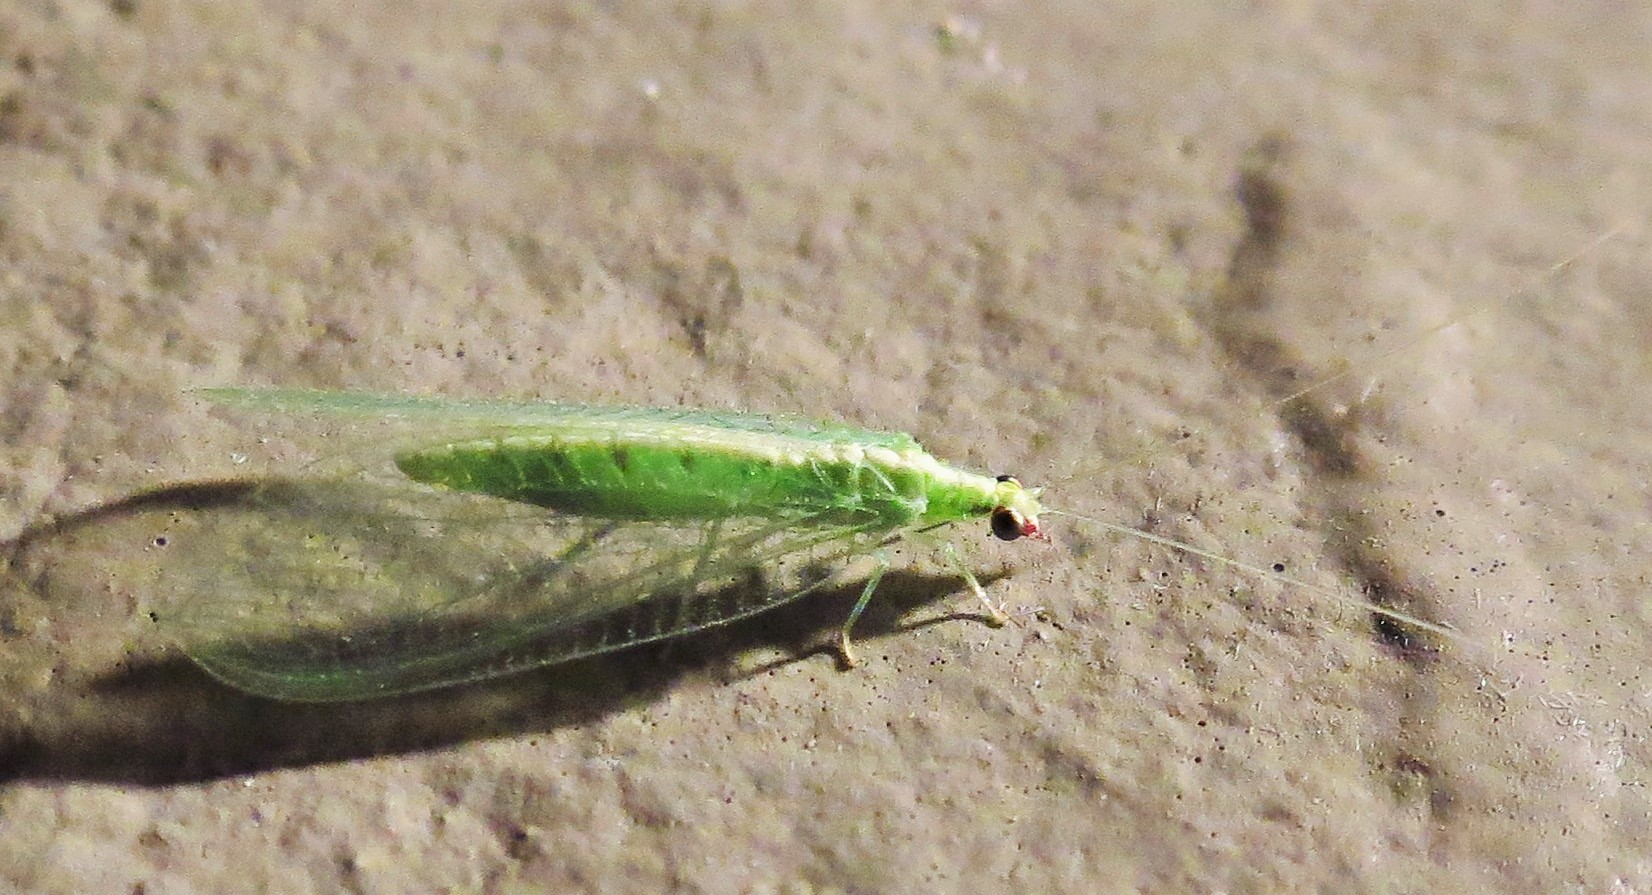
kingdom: Animalia
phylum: Arthropoda
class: Insecta
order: Neuroptera
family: Chrysopidae
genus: Chrysoperla
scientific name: Chrysoperla rufilabris
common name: Red-lipped green lacewing
